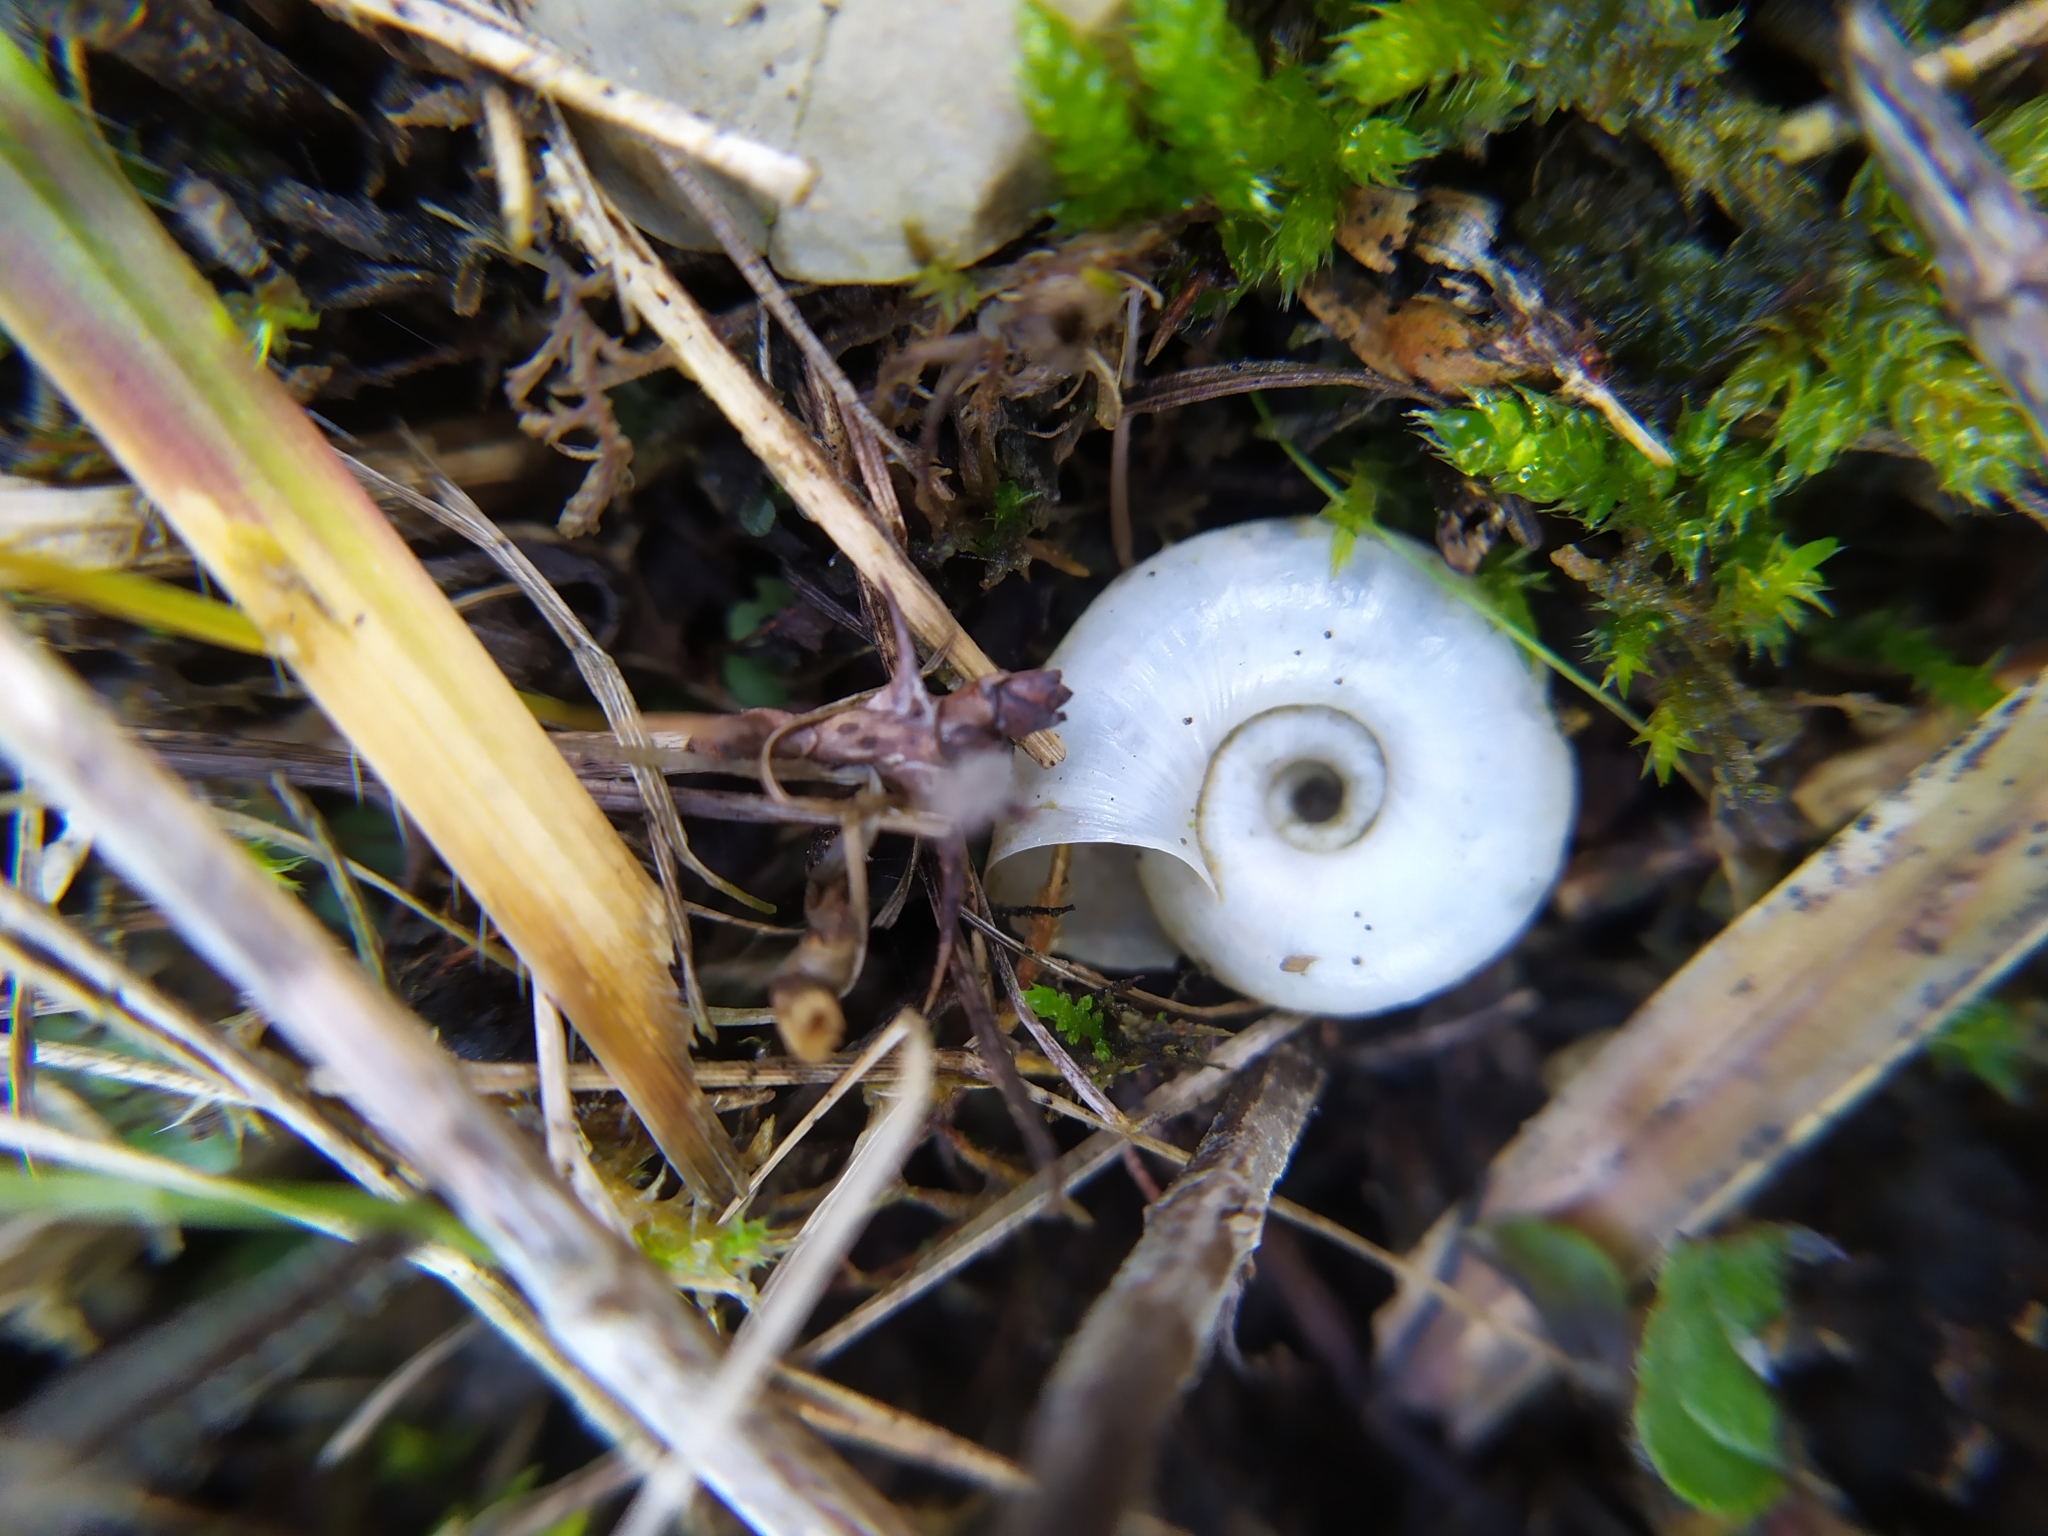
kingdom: Animalia
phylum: Mollusca
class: Gastropoda
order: Stylommatophora
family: Geomitridae
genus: Helicella
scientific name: Helicella itala
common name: Heath snail
